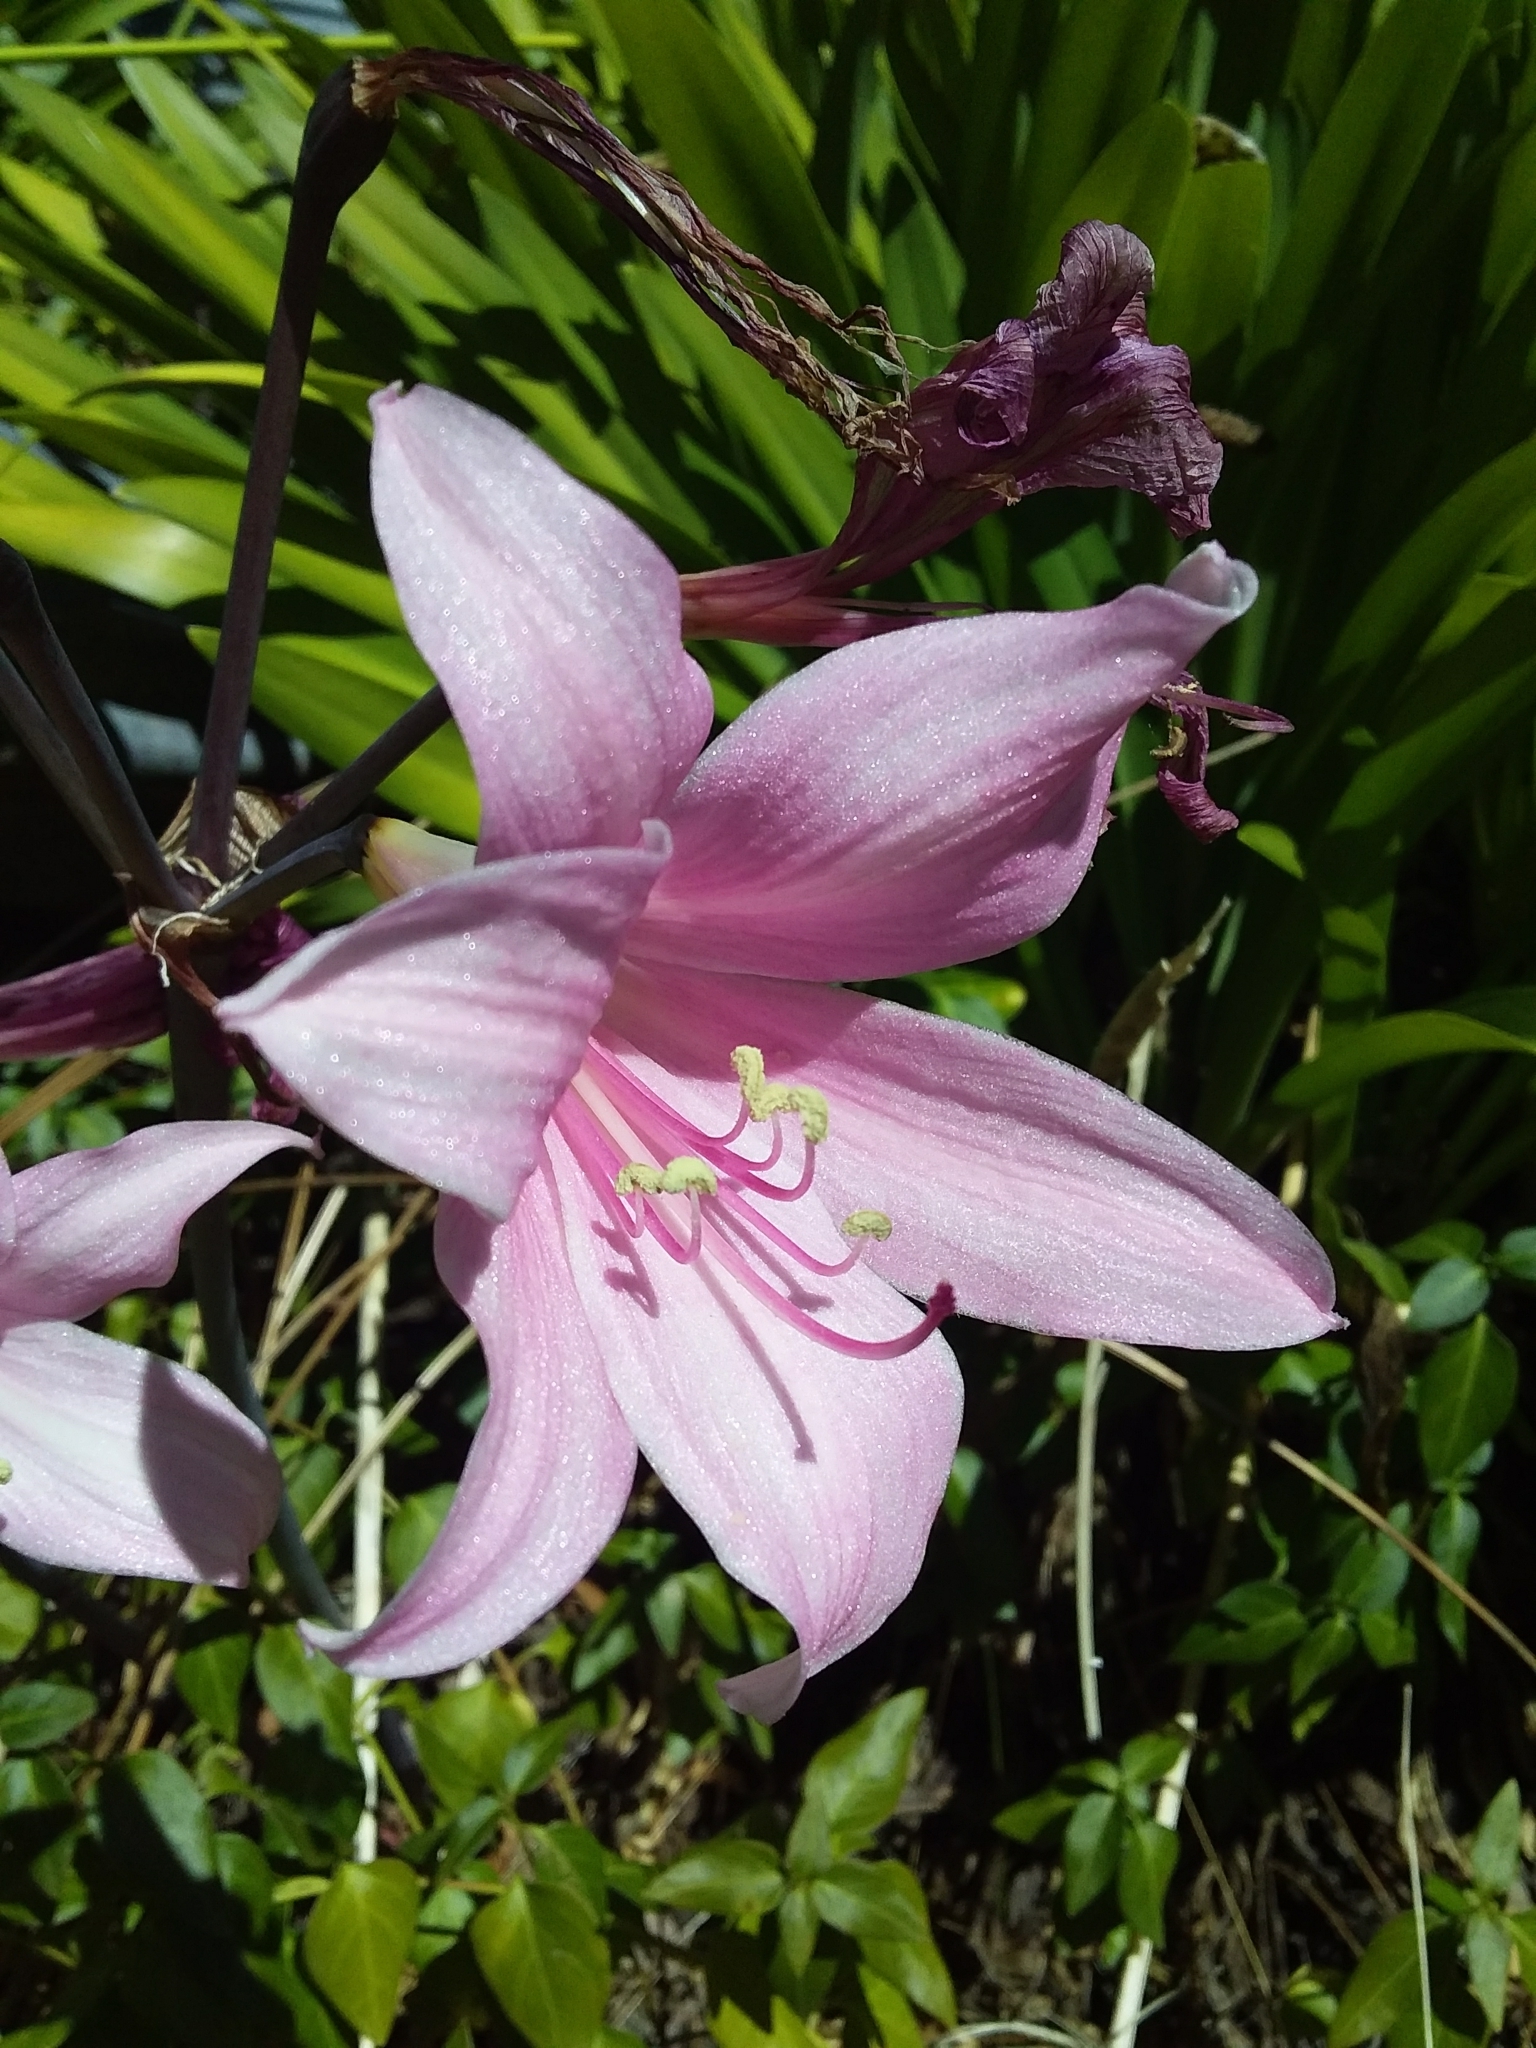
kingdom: Plantae
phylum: Tracheophyta
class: Liliopsida
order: Asparagales
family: Amaryllidaceae
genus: Amaryllis
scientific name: Amaryllis belladonna
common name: Jersey lily
